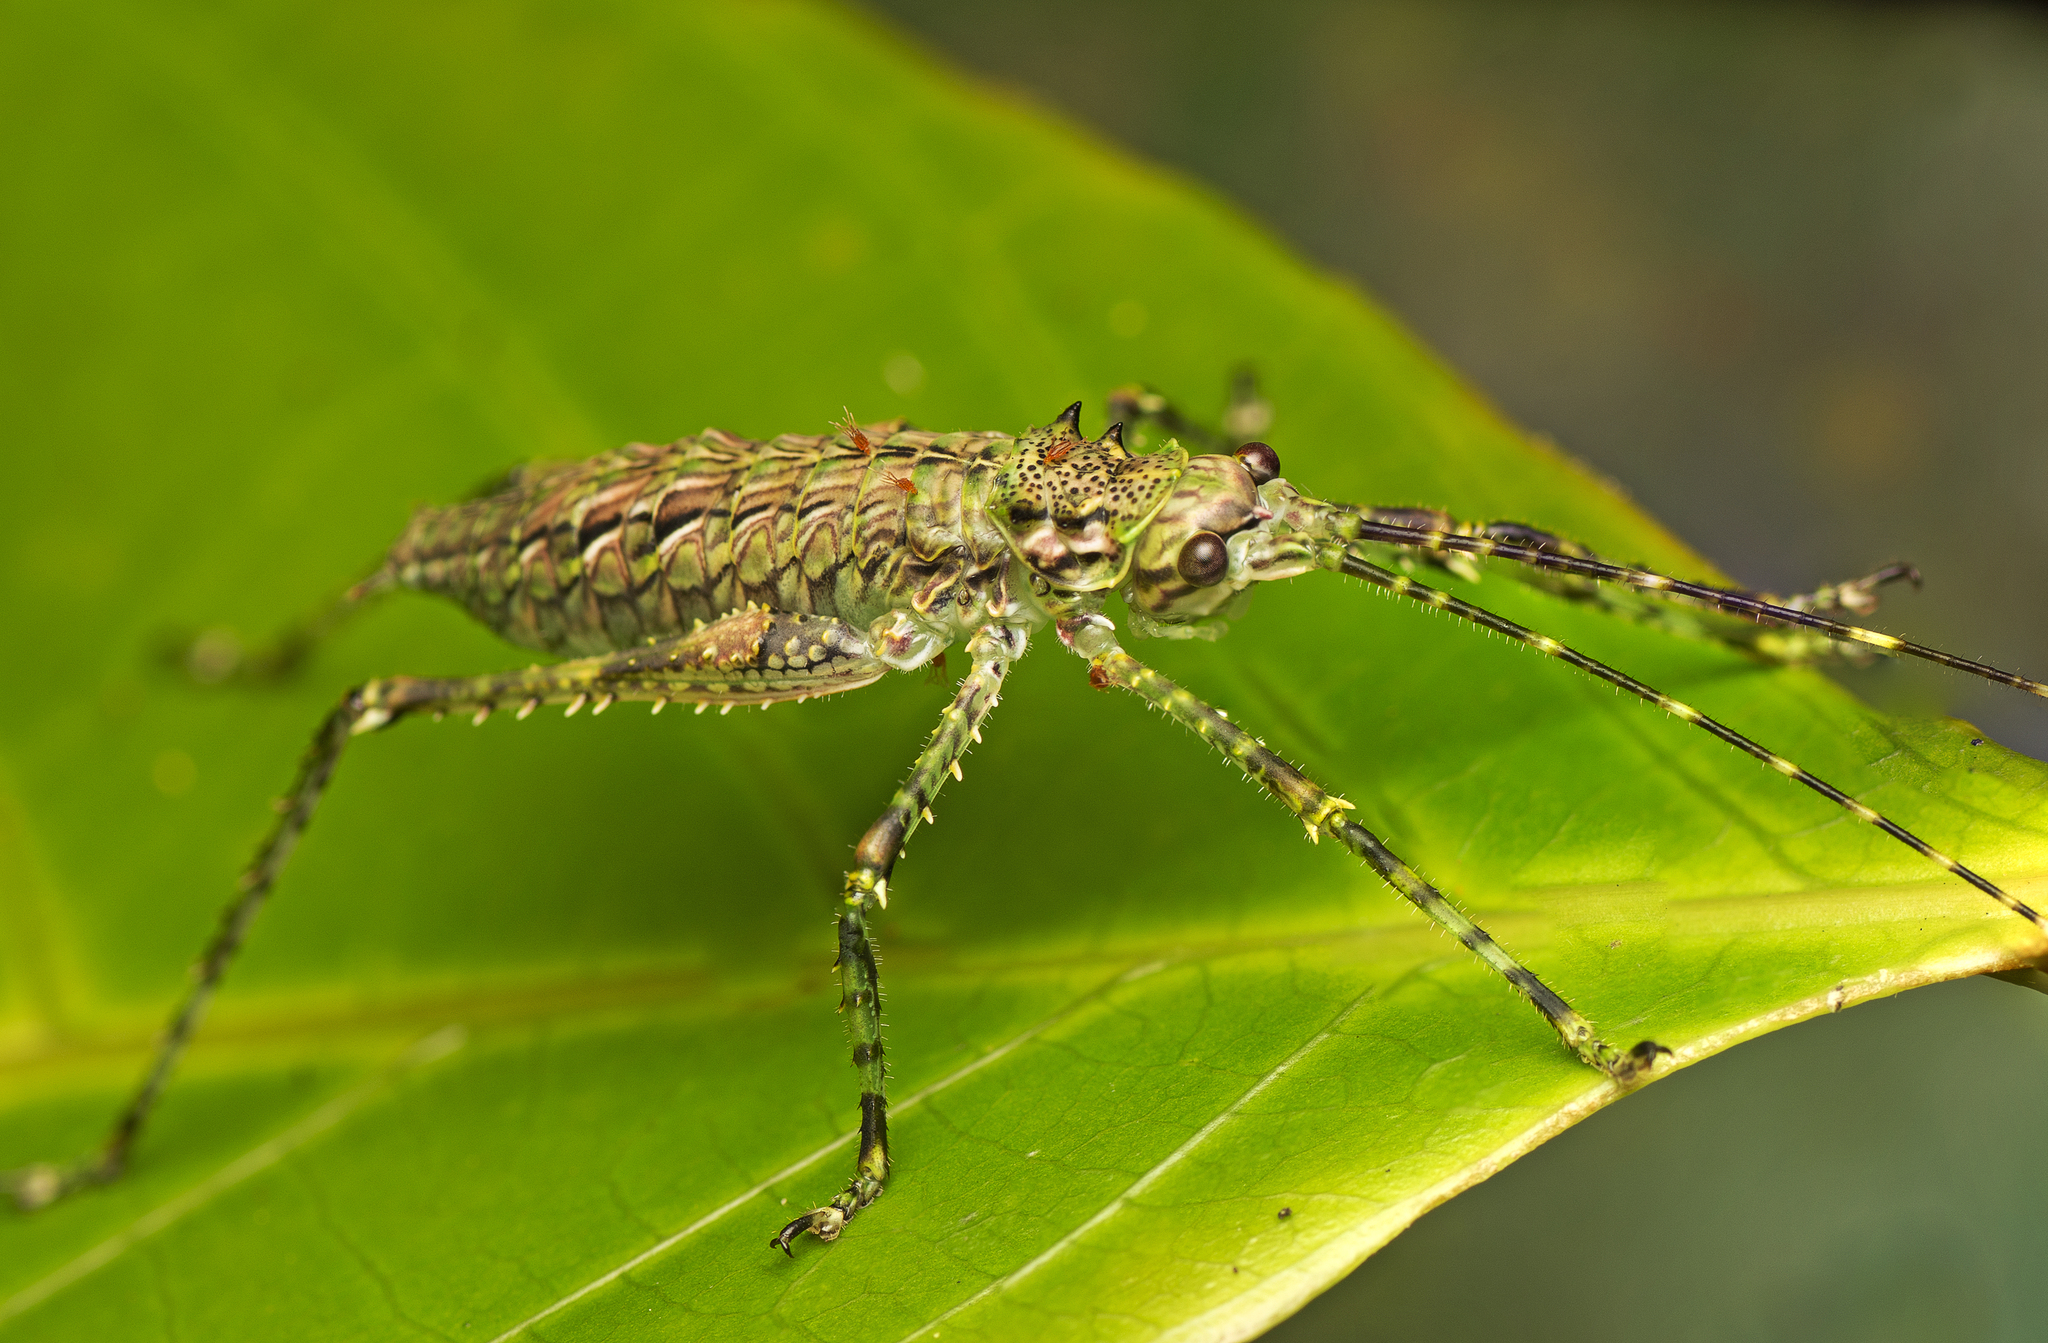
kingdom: Animalia
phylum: Arthropoda
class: Insecta
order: Orthoptera
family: Tettigoniidae
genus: Phricta
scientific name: Phricta spinosa
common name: Giant spiny forest katydid
